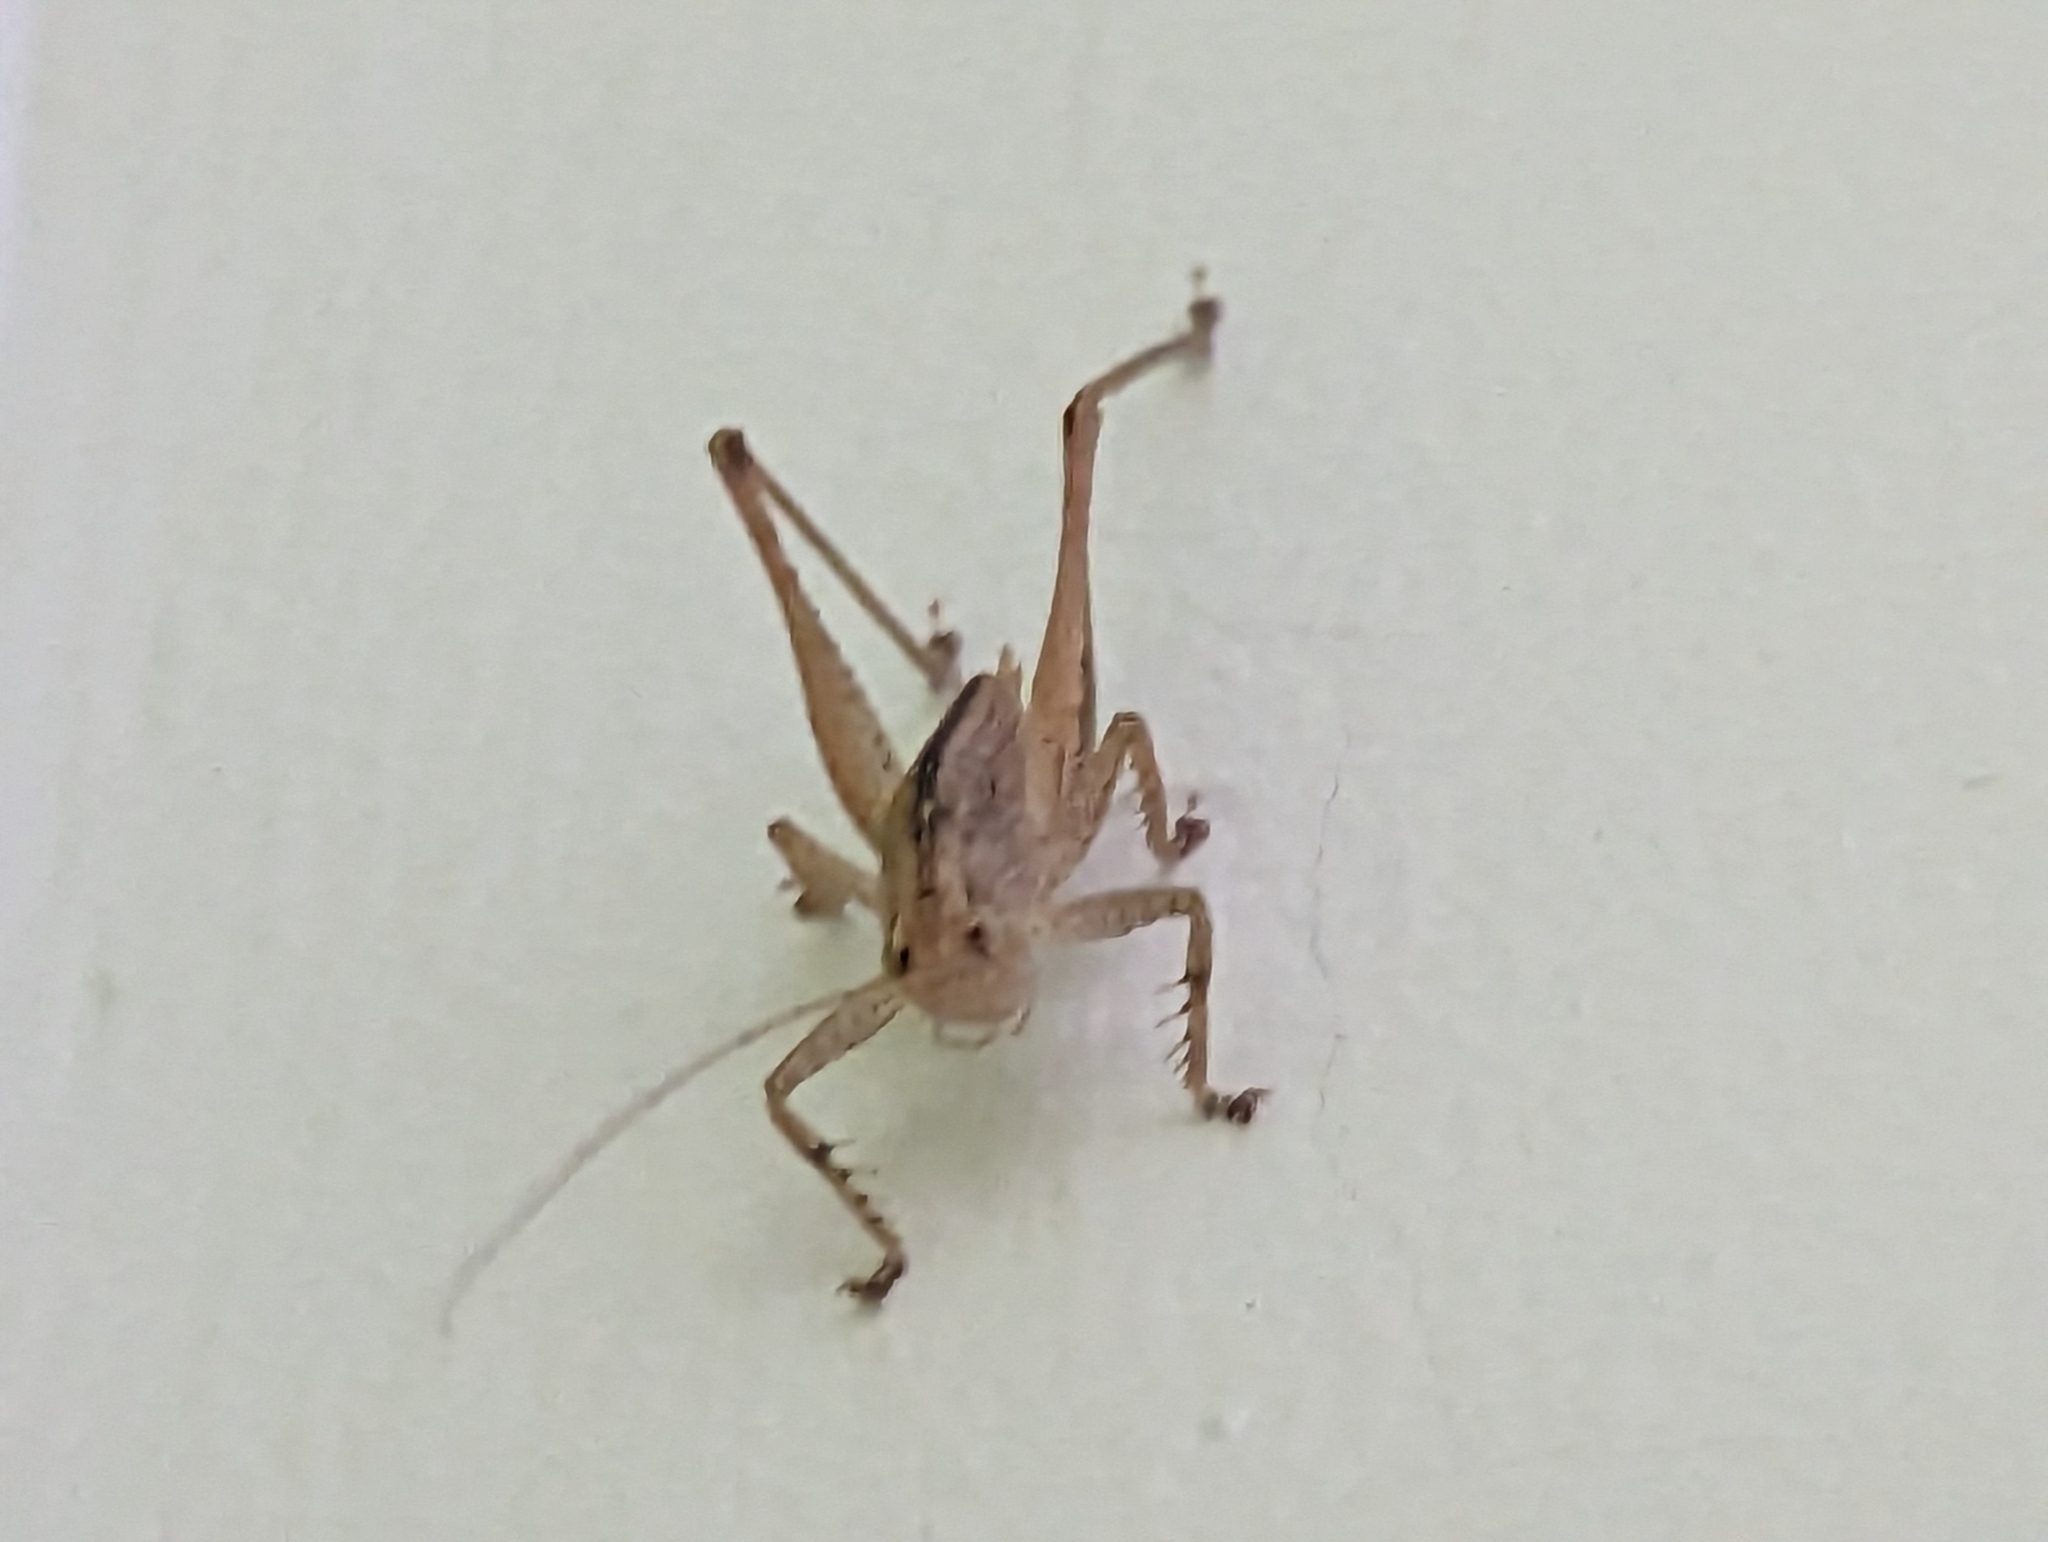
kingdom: Animalia
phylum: Arthropoda
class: Insecta
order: Orthoptera
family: Tettigoniidae
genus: Requena
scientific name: Requena verticalis
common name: Common western requena
